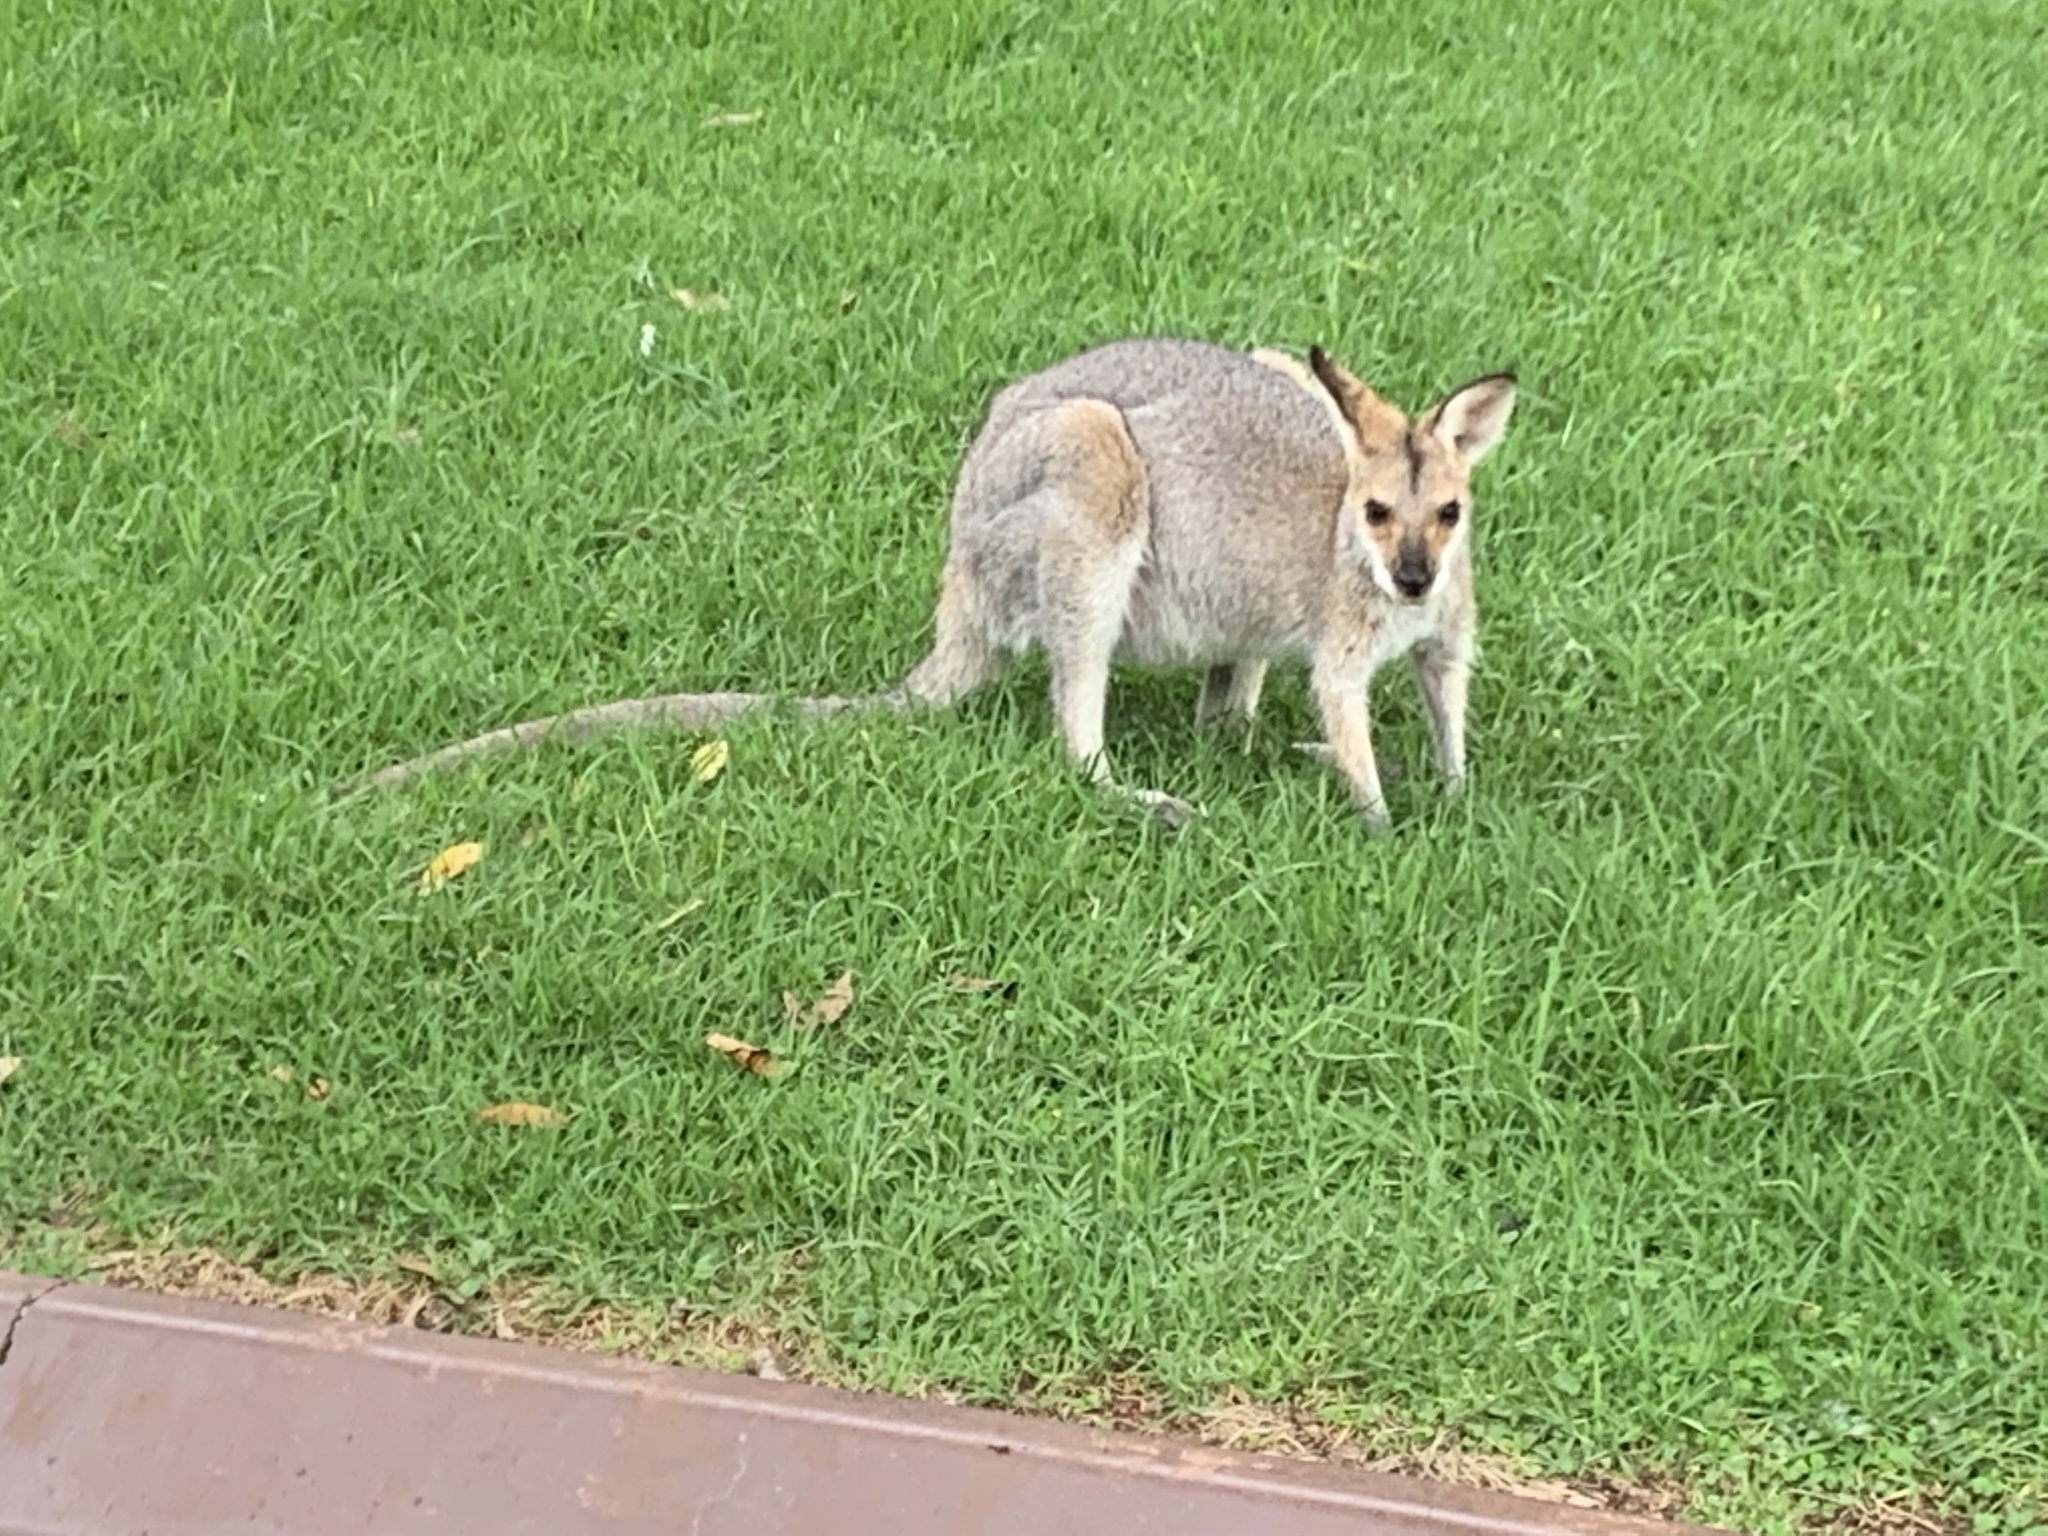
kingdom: Animalia
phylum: Chordata
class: Mammalia
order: Diprotodontia
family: Macropodidae
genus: Notamacropus
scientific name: Notamacropus rufogriseus
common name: Red-necked wallaby
